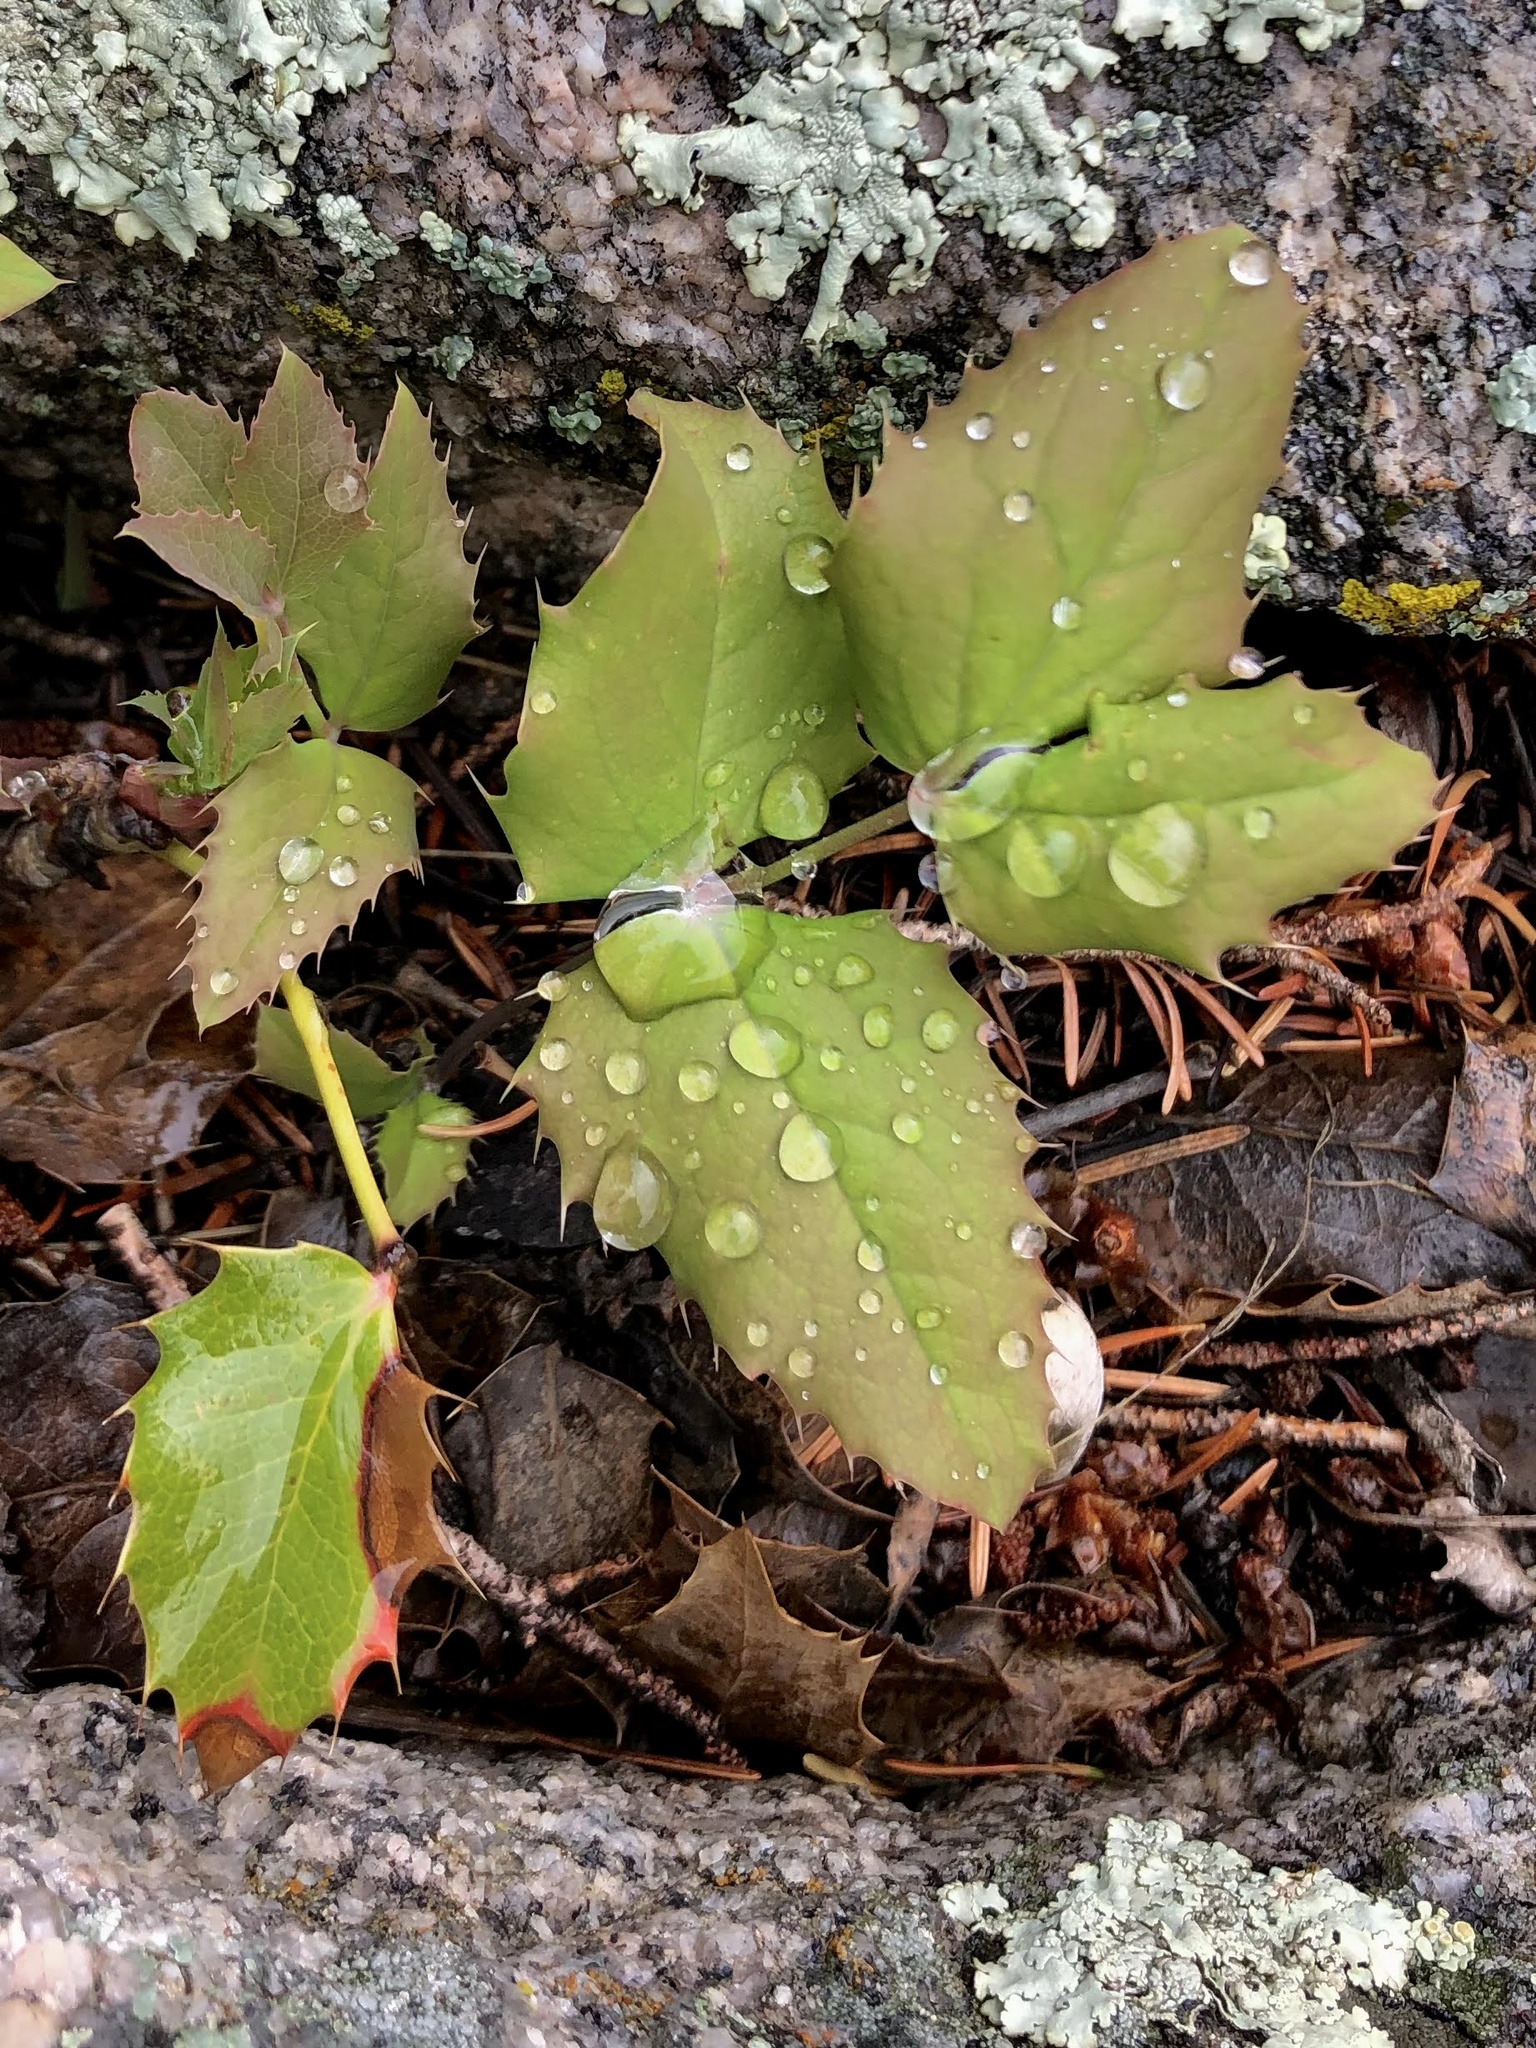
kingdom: Plantae
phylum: Tracheophyta
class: Magnoliopsida
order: Ranunculales
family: Berberidaceae
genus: Mahonia
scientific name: Mahonia repens
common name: Creeping oregon-grape
